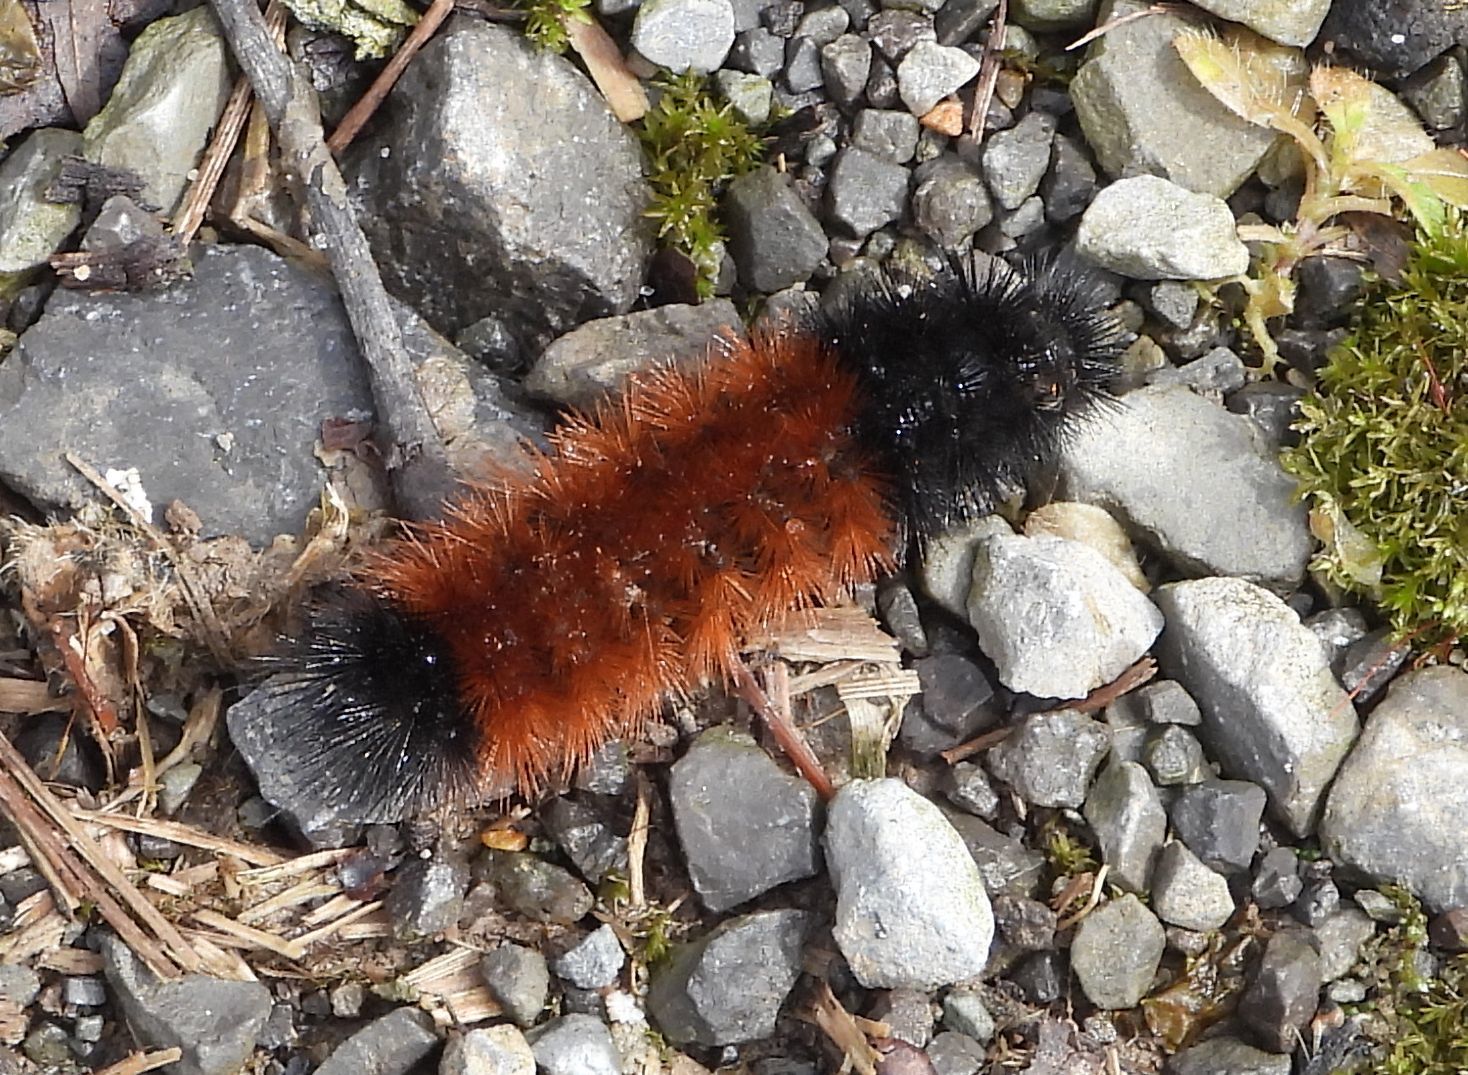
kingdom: Animalia
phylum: Arthropoda
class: Insecta
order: Lepidoptera
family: Erebidae
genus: Pyrrharctia
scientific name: Pyrrharctia isabella
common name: Isabella tiger moth
